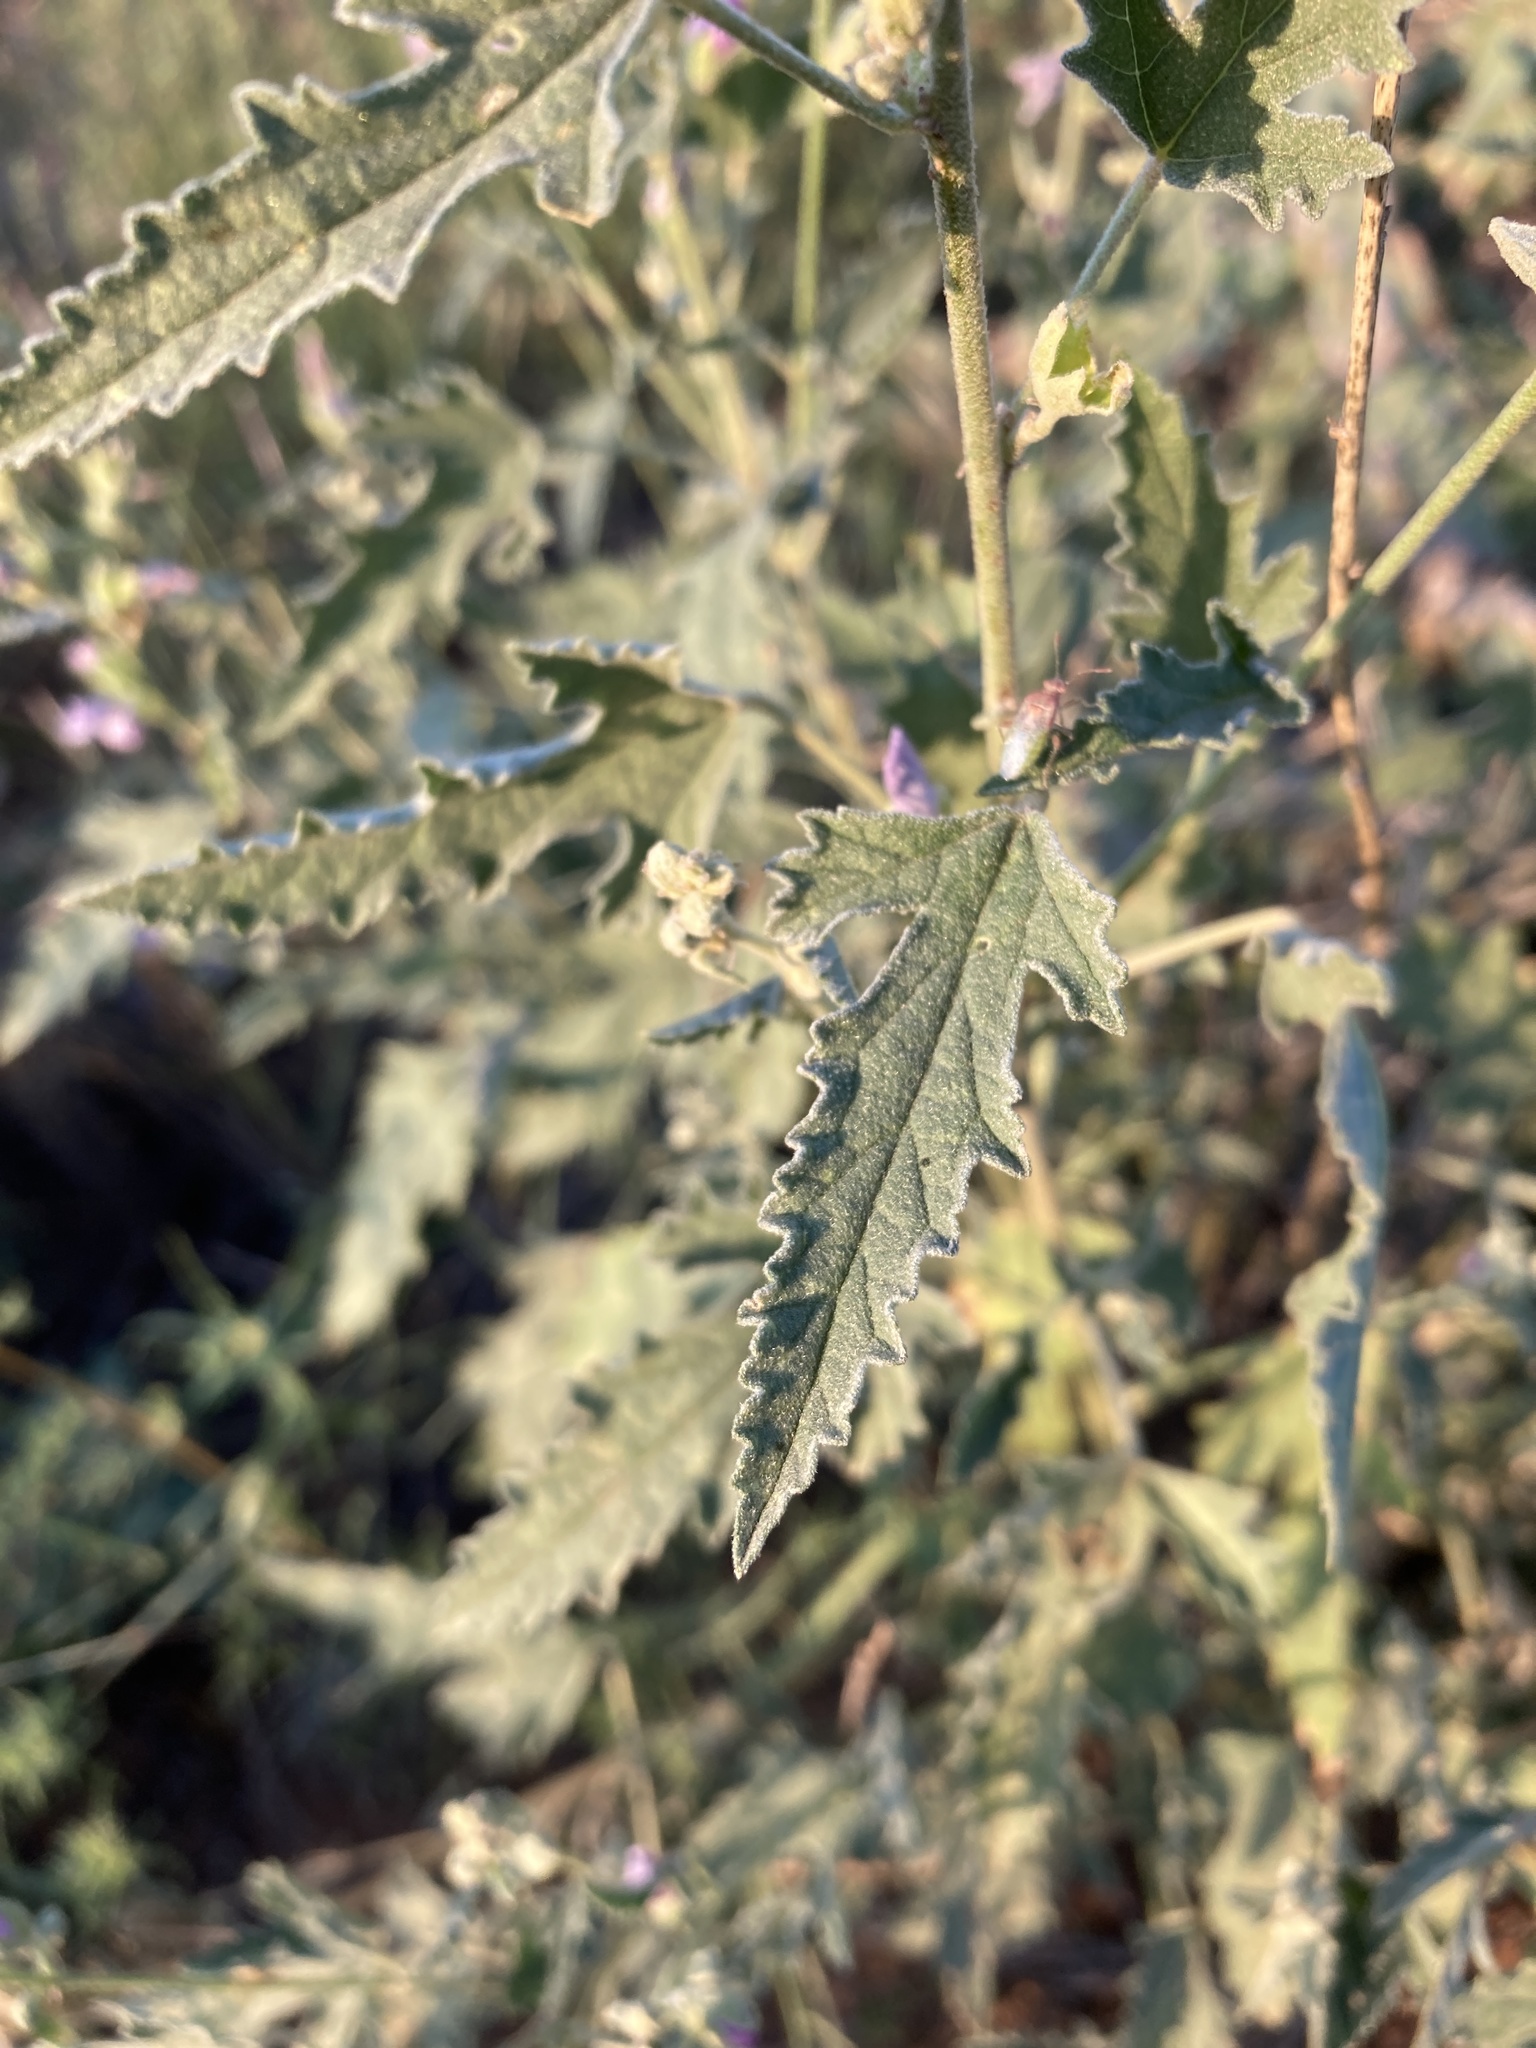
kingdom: Plantae
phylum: Tracheophyta
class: Magnoliopsida
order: Malvales
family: Malvaceae
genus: Sphaeralcea
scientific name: Sphaeralcea polychroma
